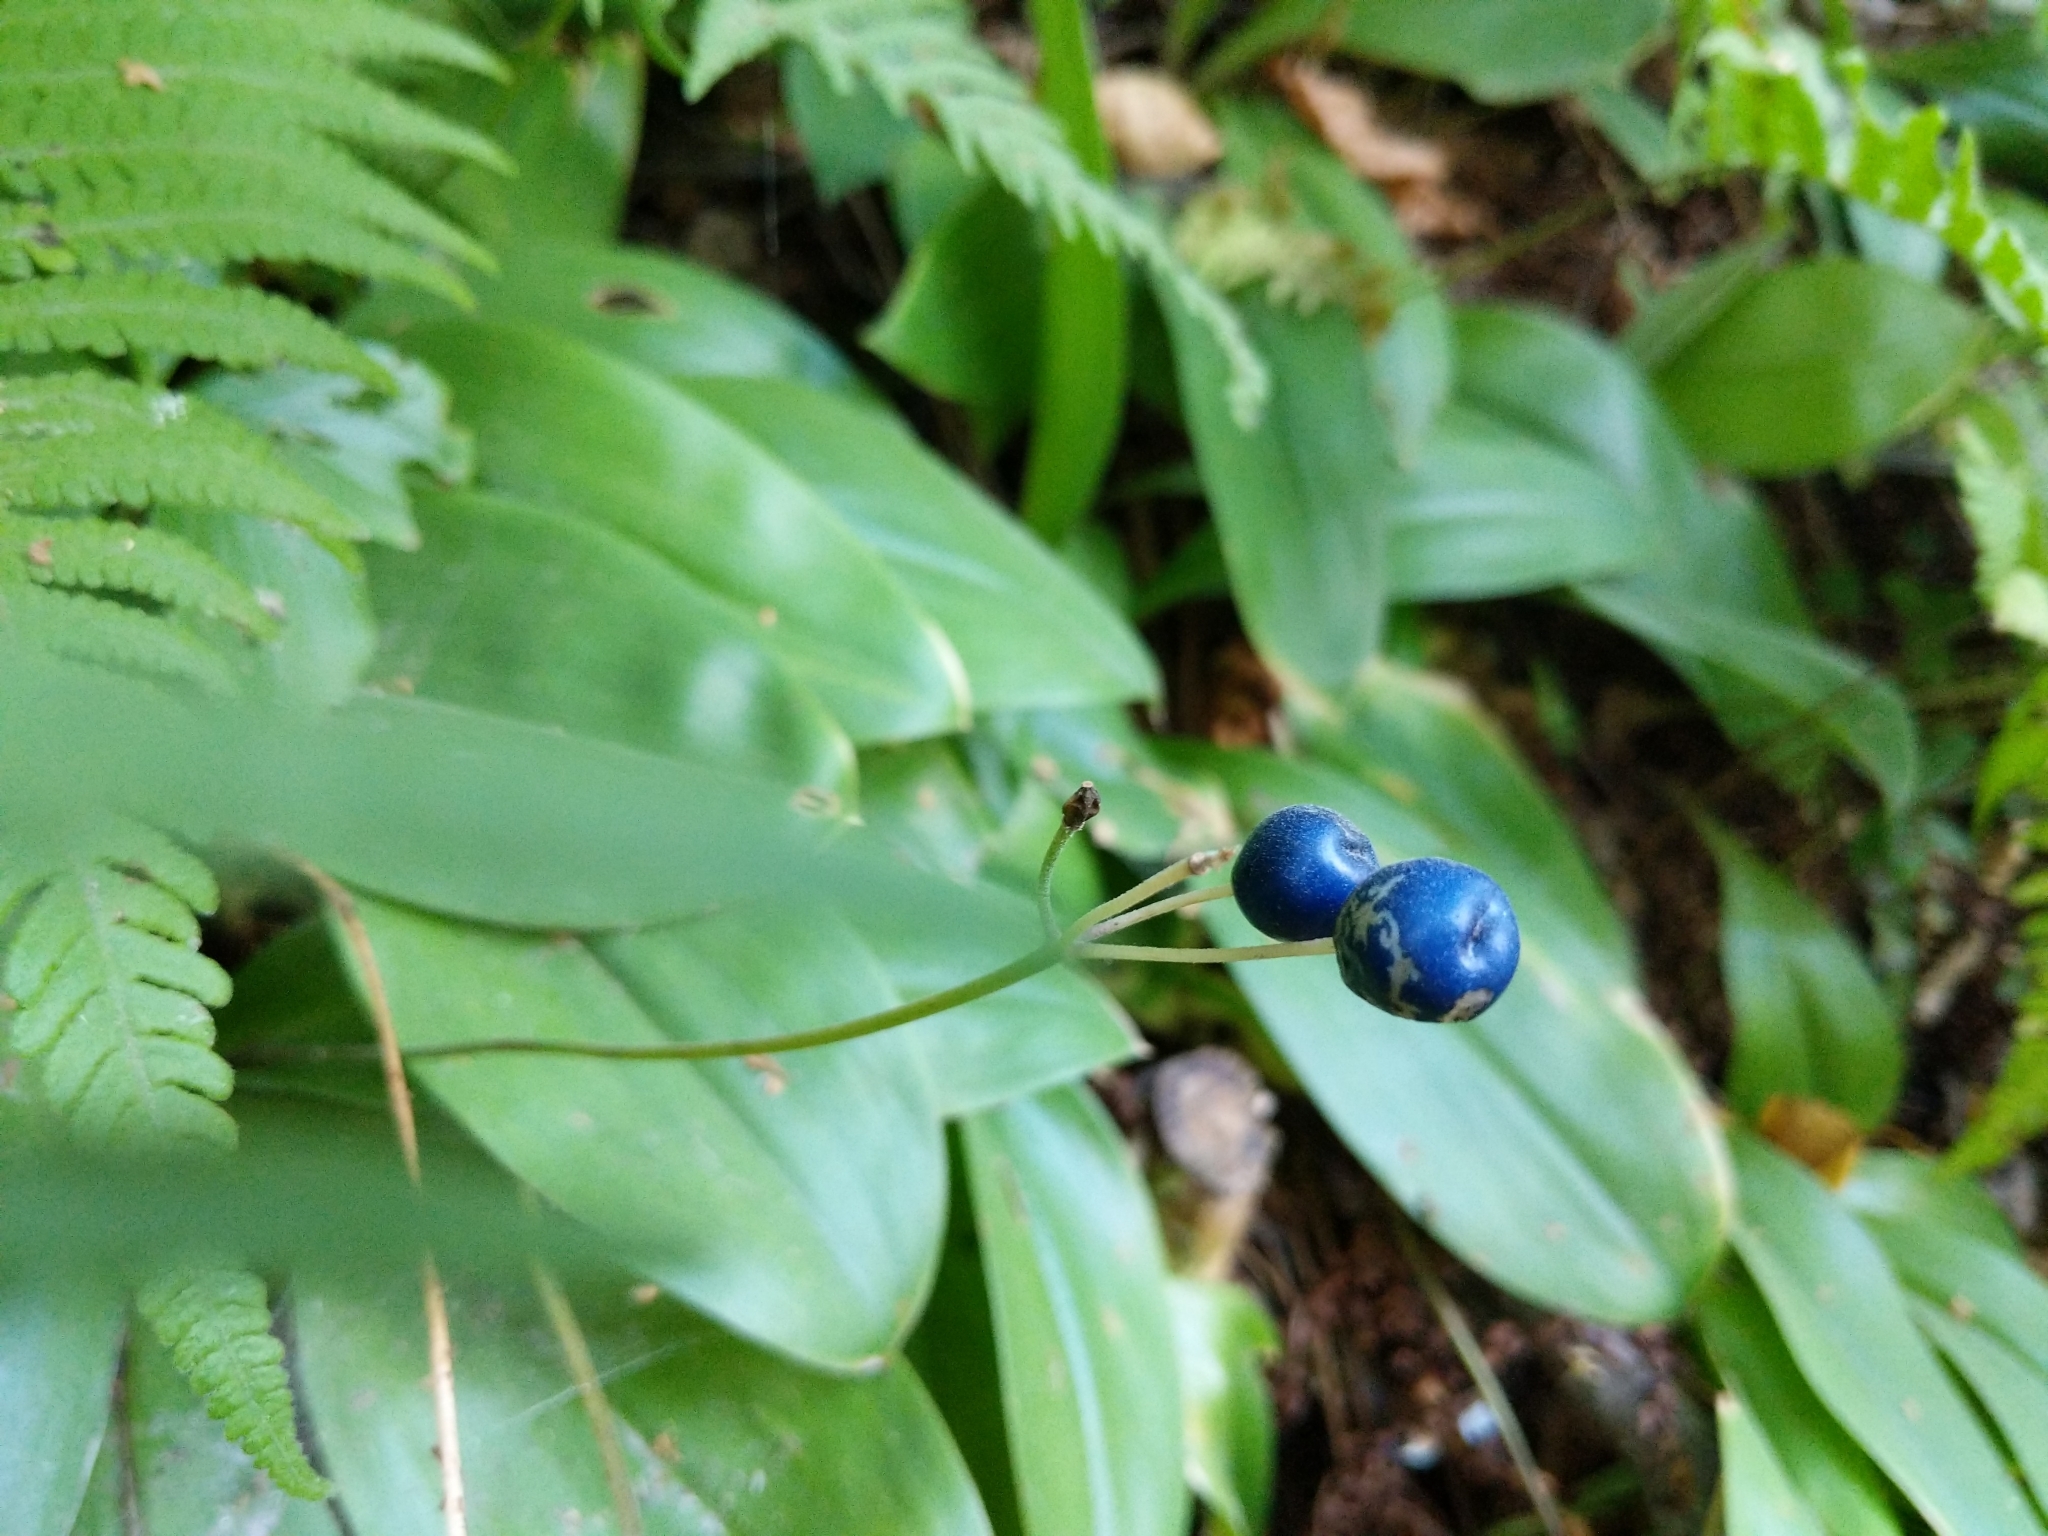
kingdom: Plantae
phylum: Tracheophyta
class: Liliopsida
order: Liliales
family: Liliaceae
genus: Clintonia
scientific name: Clintonia borealis
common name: Yellow clintonia
